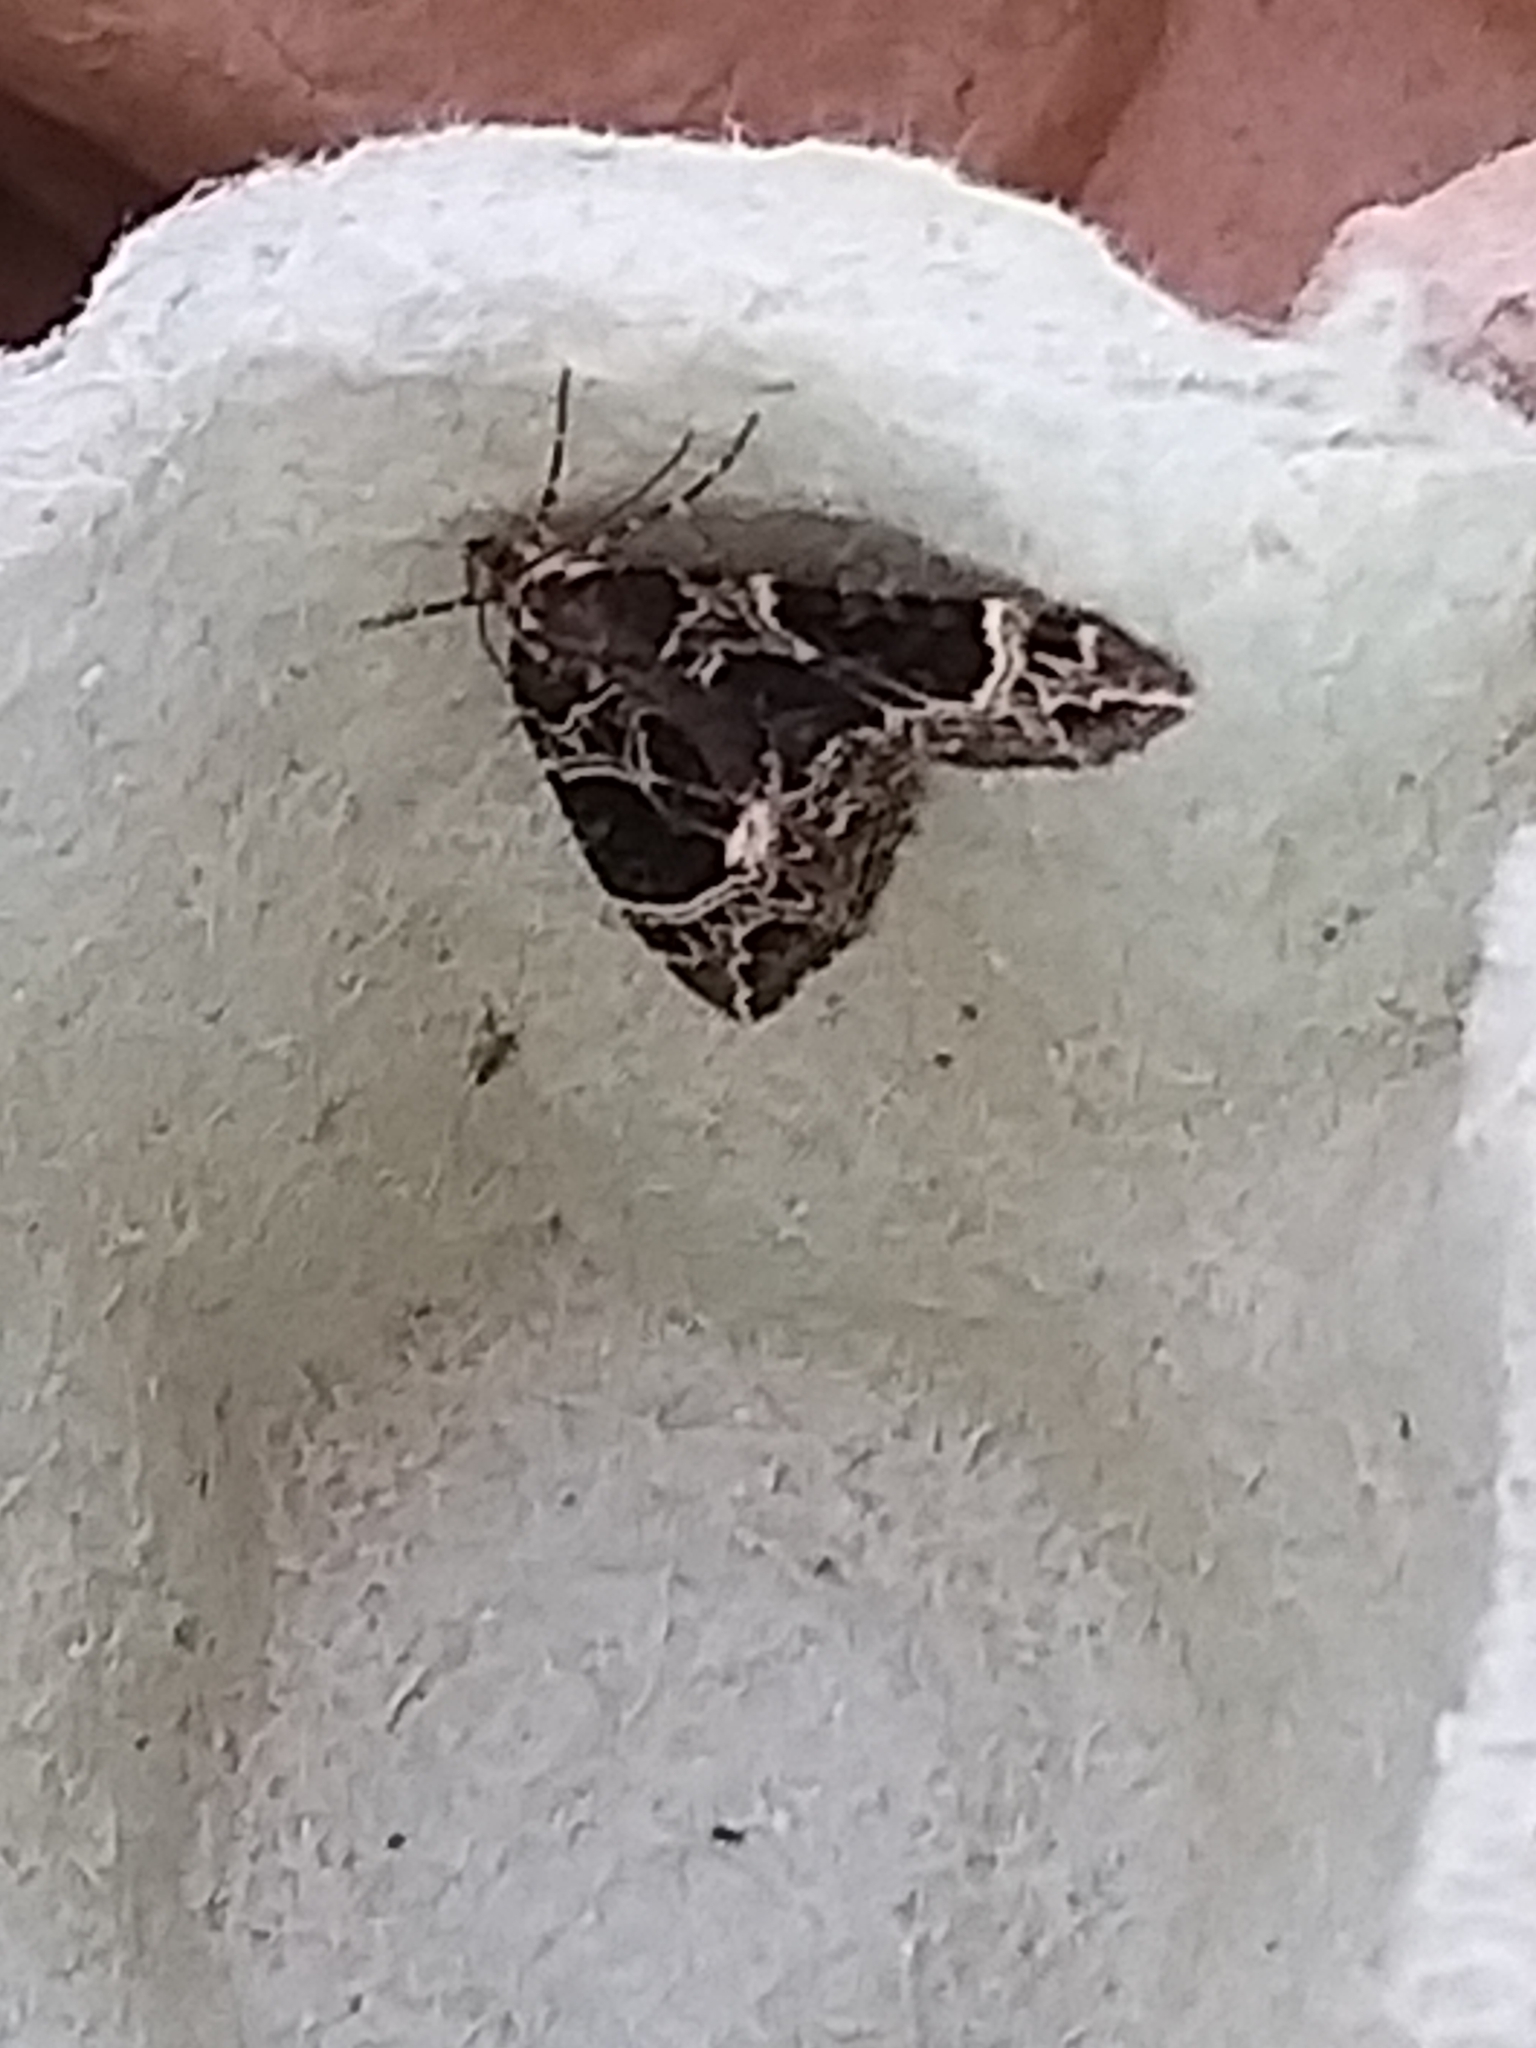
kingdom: Animalia
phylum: Arthropoda
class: Insecta
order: Lepidoptera
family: Geometridae
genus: Ecliptopera
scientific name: Ecliptopera silaceata
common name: Small phoenix
